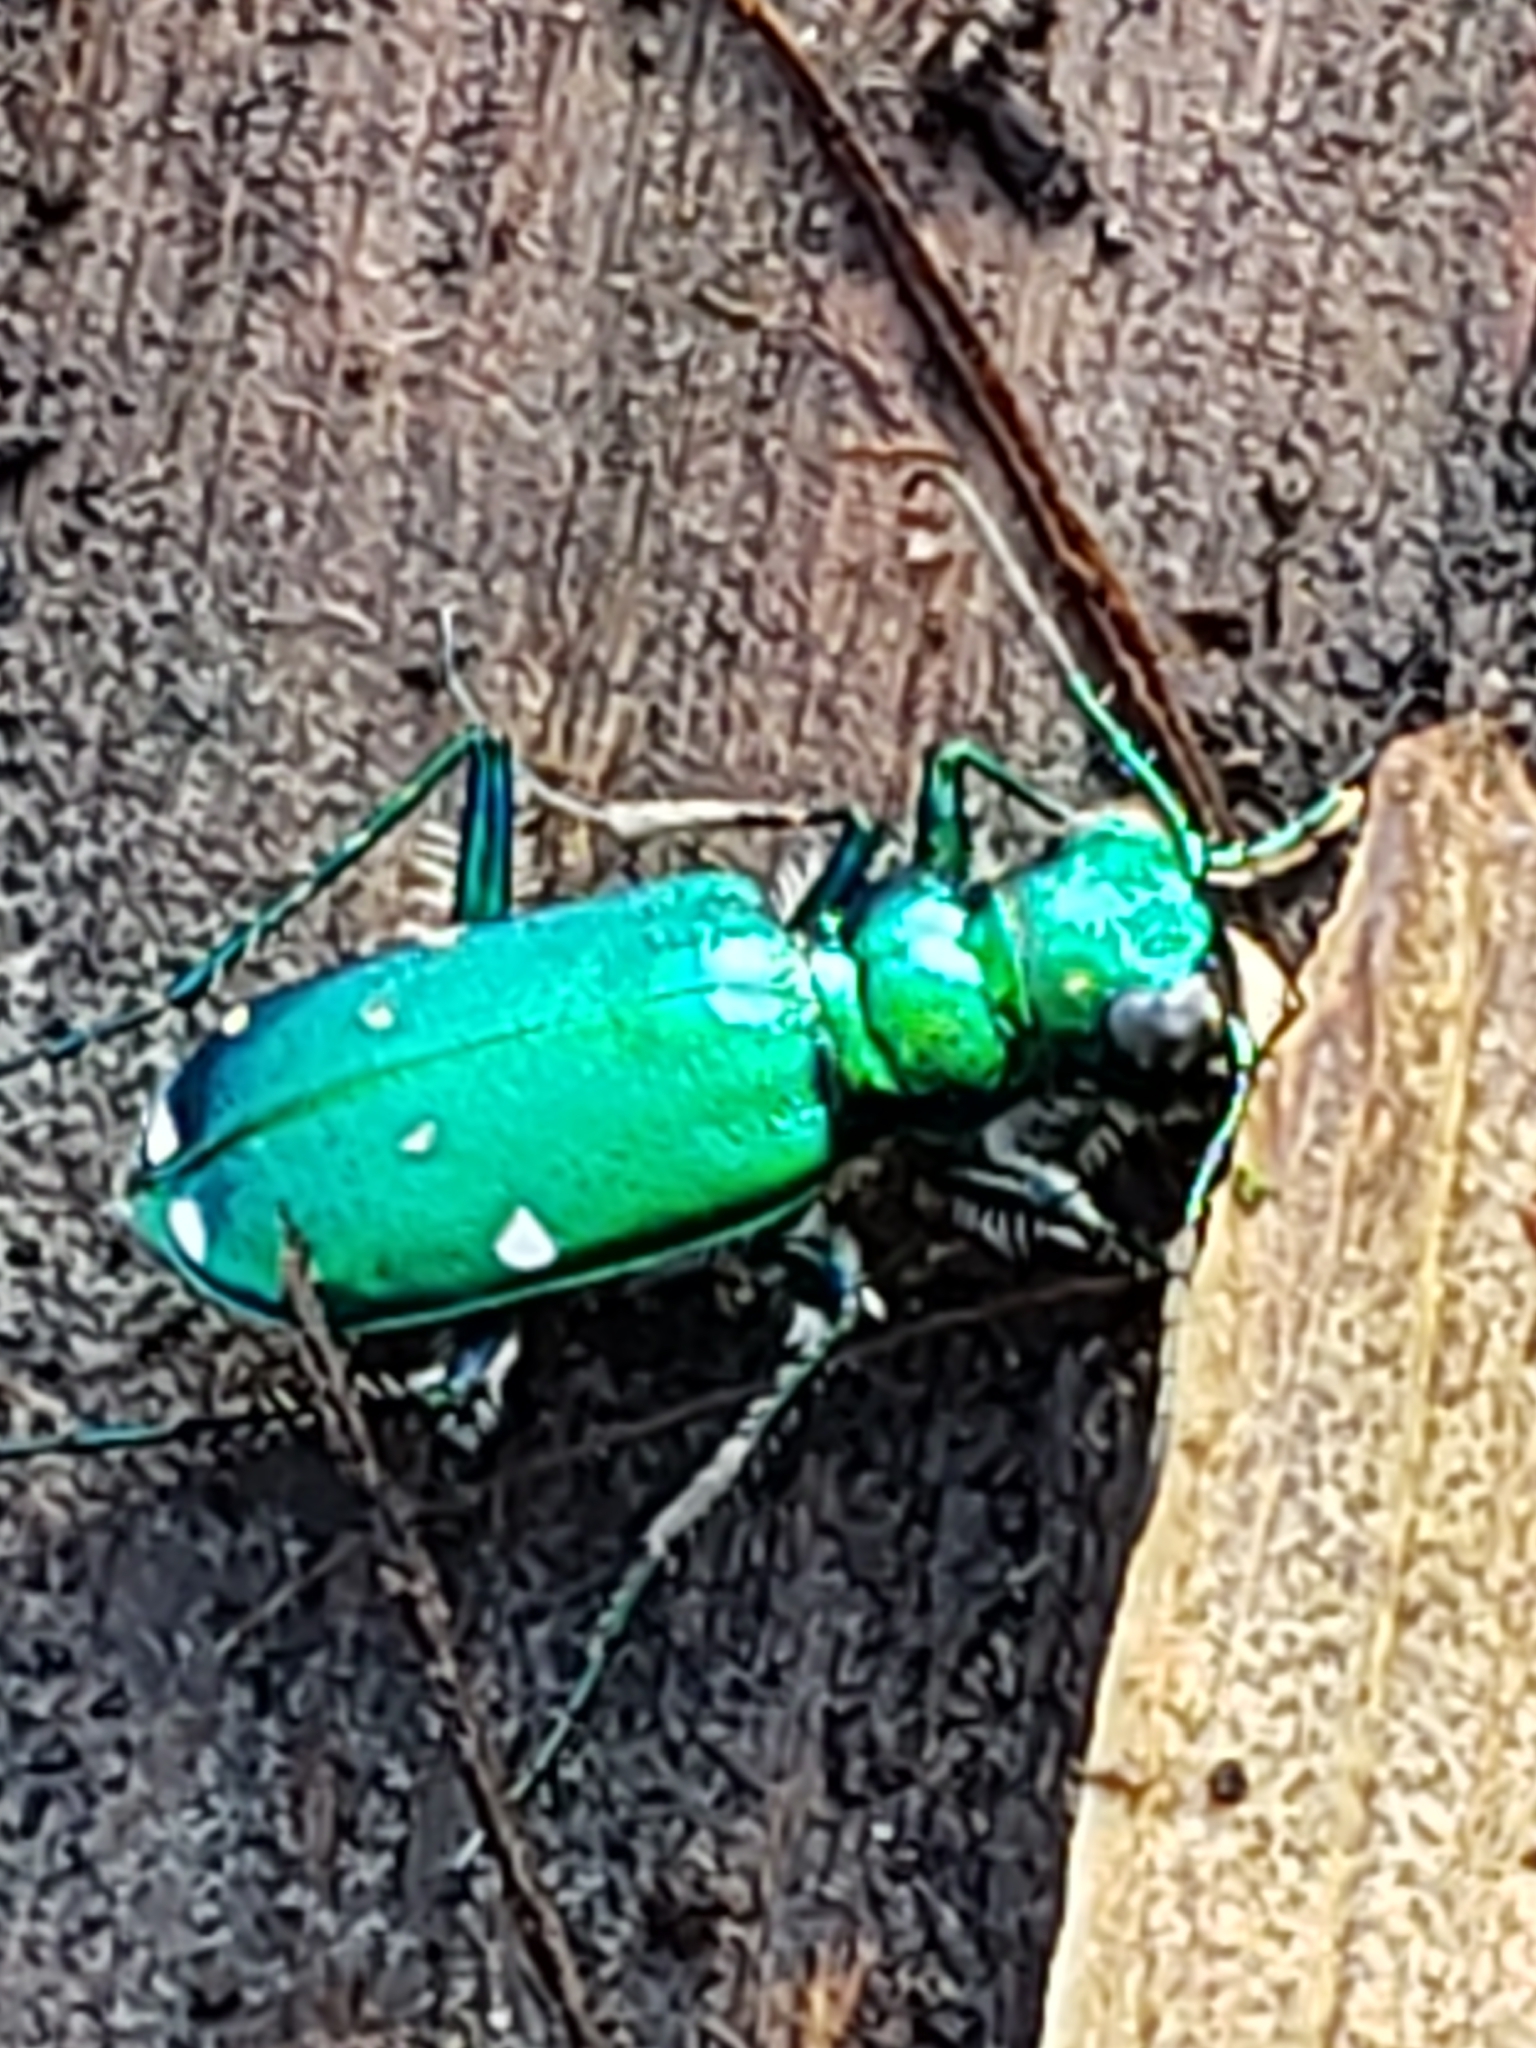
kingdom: Animalia
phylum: Arthropoda
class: Insecta
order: Coleoptera
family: Carabidae
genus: Cicindela
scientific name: Cicindela sexguttata
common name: Six-spotted tiger beetle
